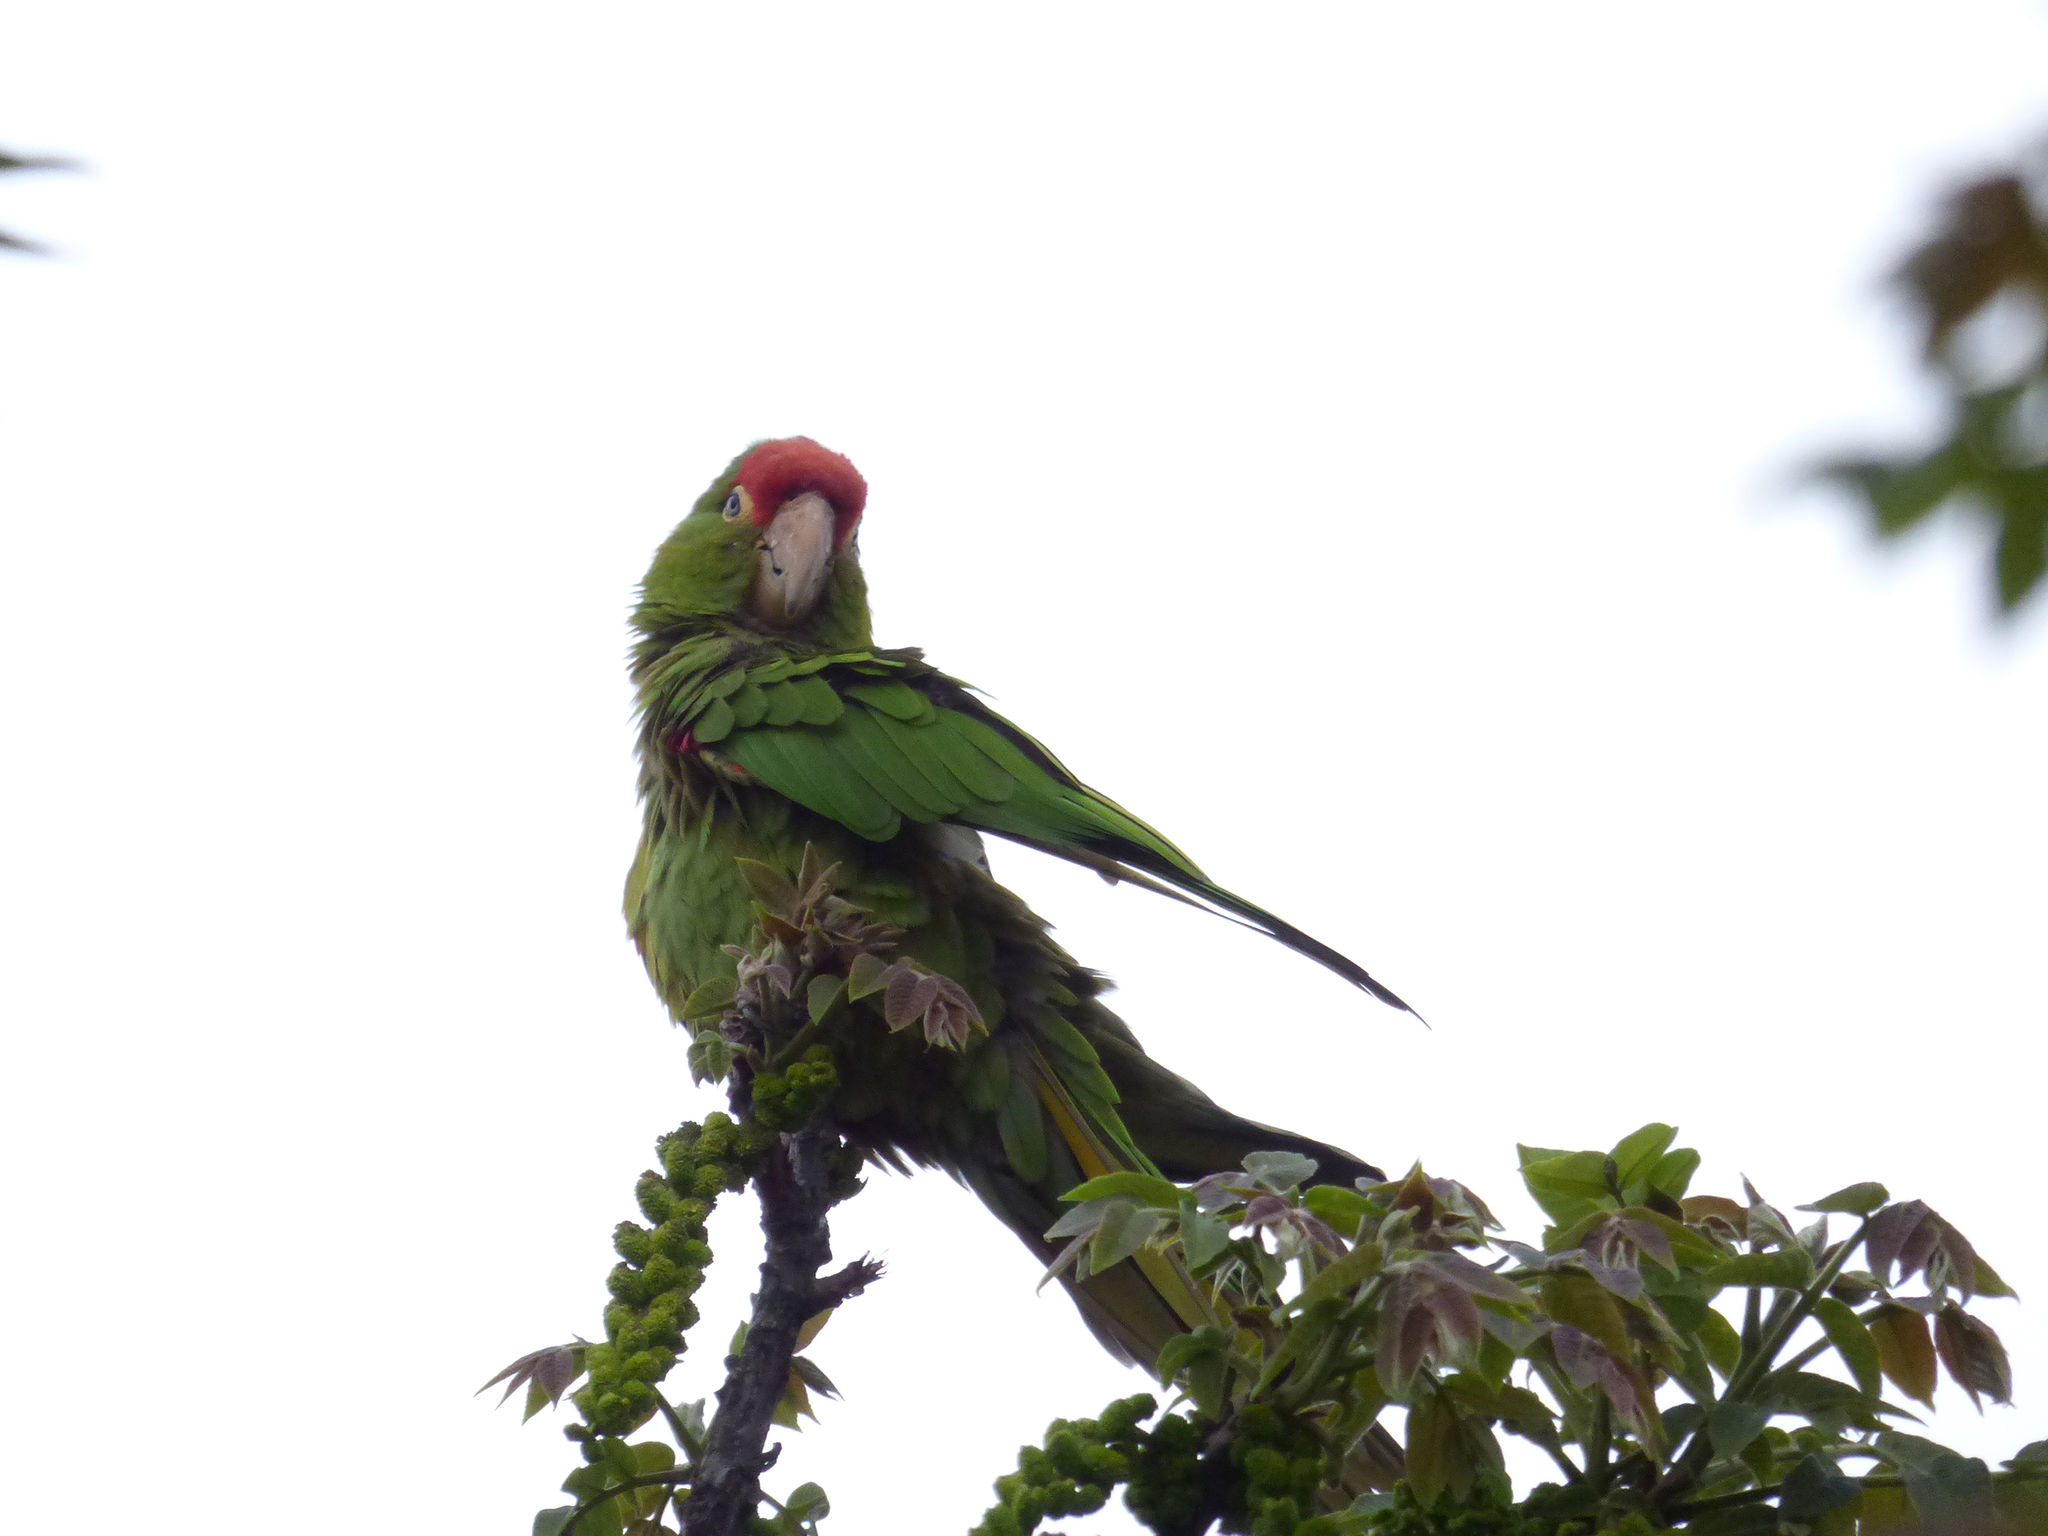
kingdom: Animalia
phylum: Chordata
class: Aves
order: Psittaciformes
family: Psittacidae
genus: Aratinga
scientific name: Aratinga wagleri
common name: Scarlet-fronted parakeet
